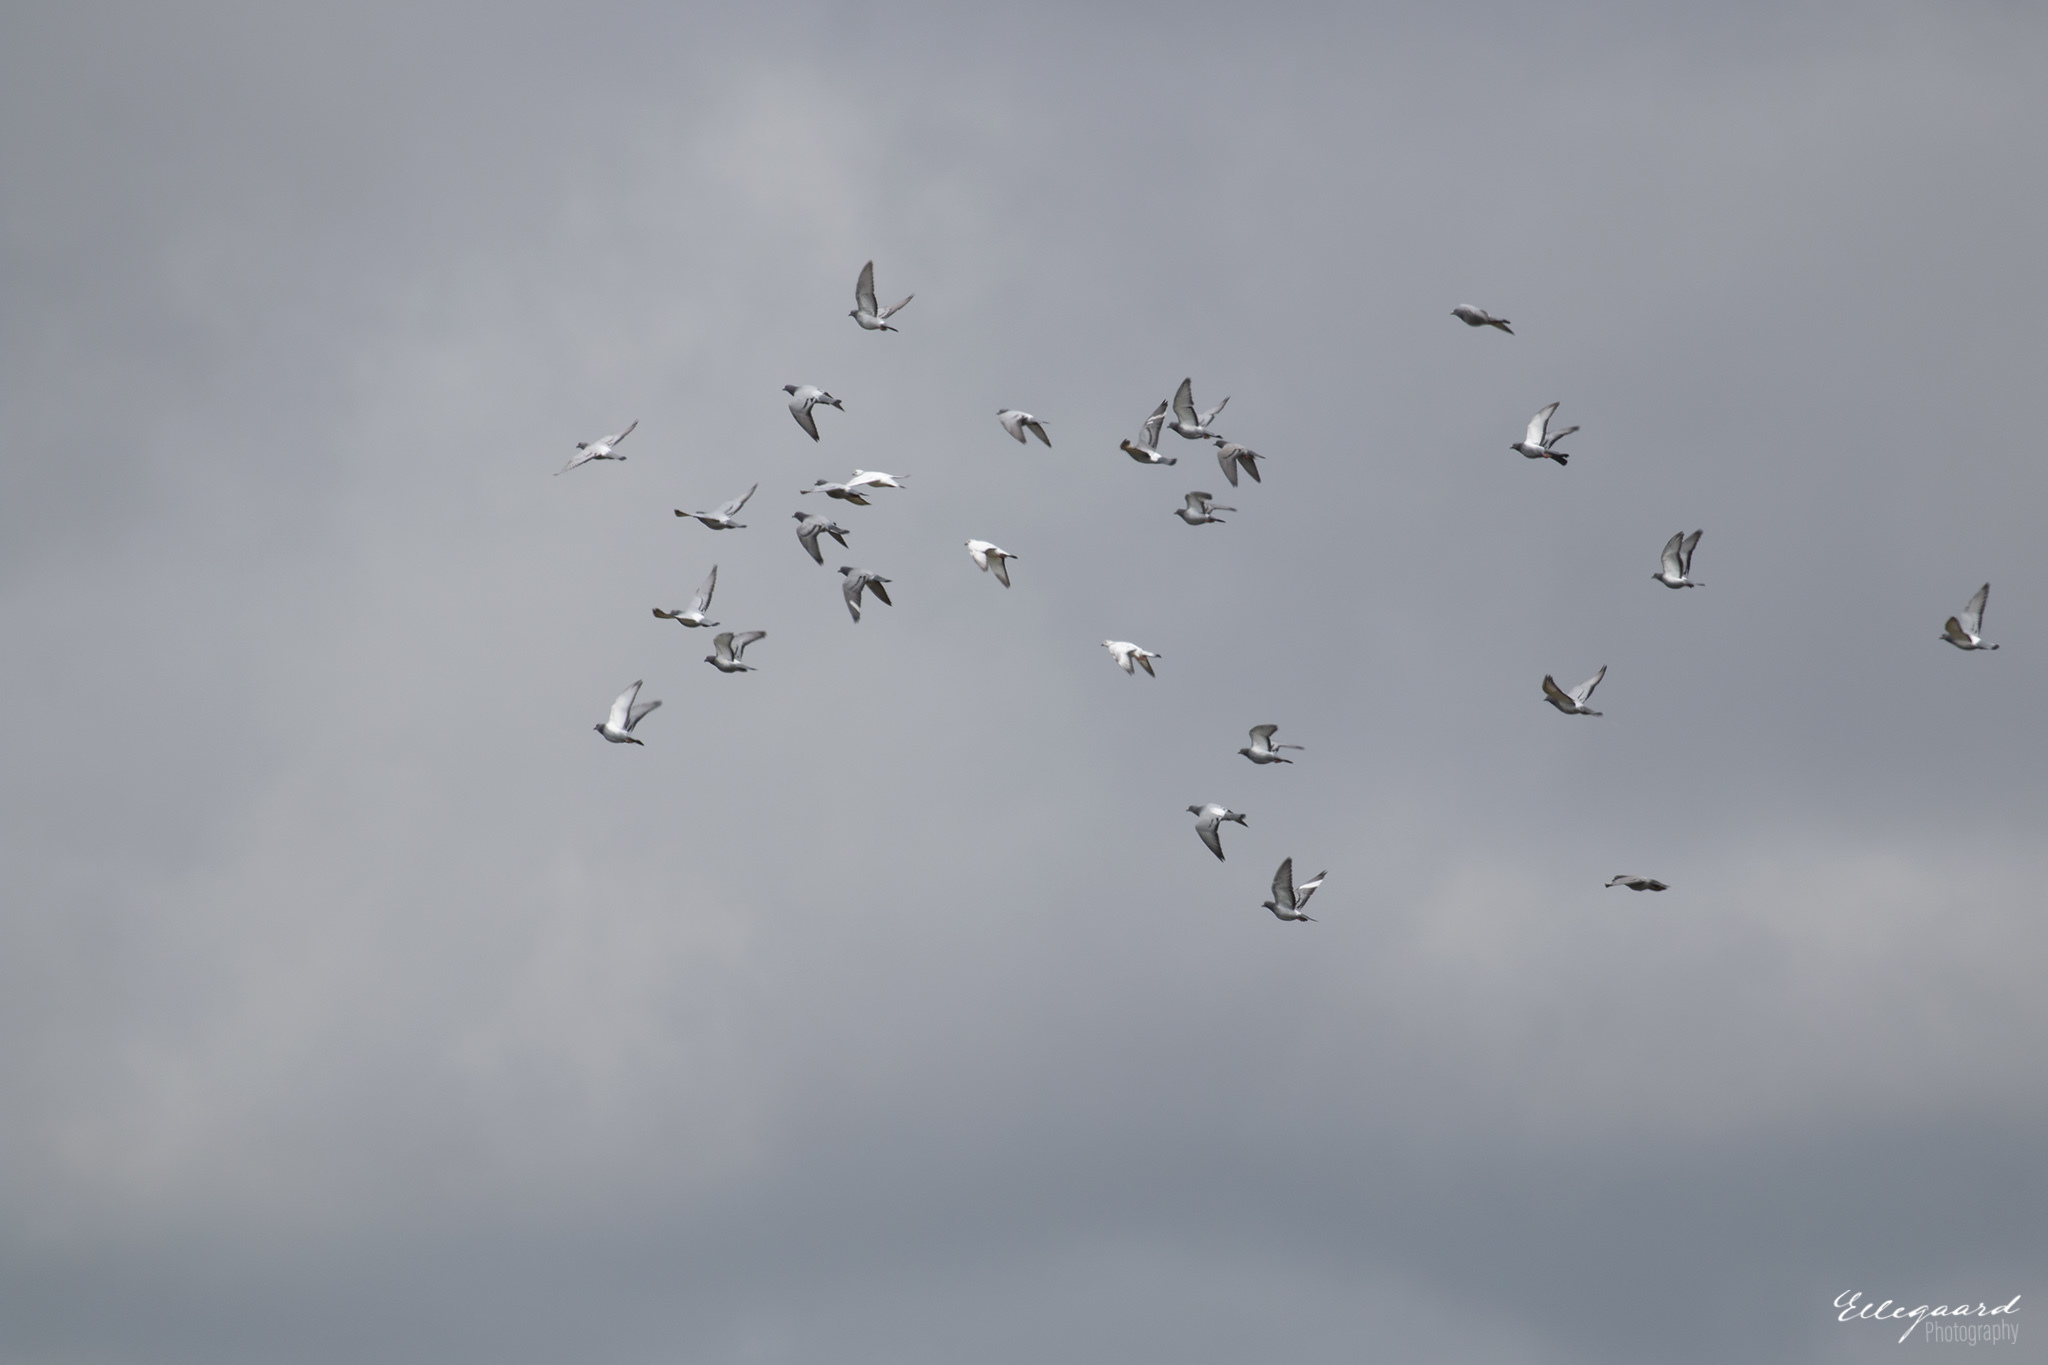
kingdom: Animalia
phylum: Chordata
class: Aves
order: Columbiformes
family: Columbidae
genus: Columba
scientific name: Columba livia
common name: Rock pigeon
